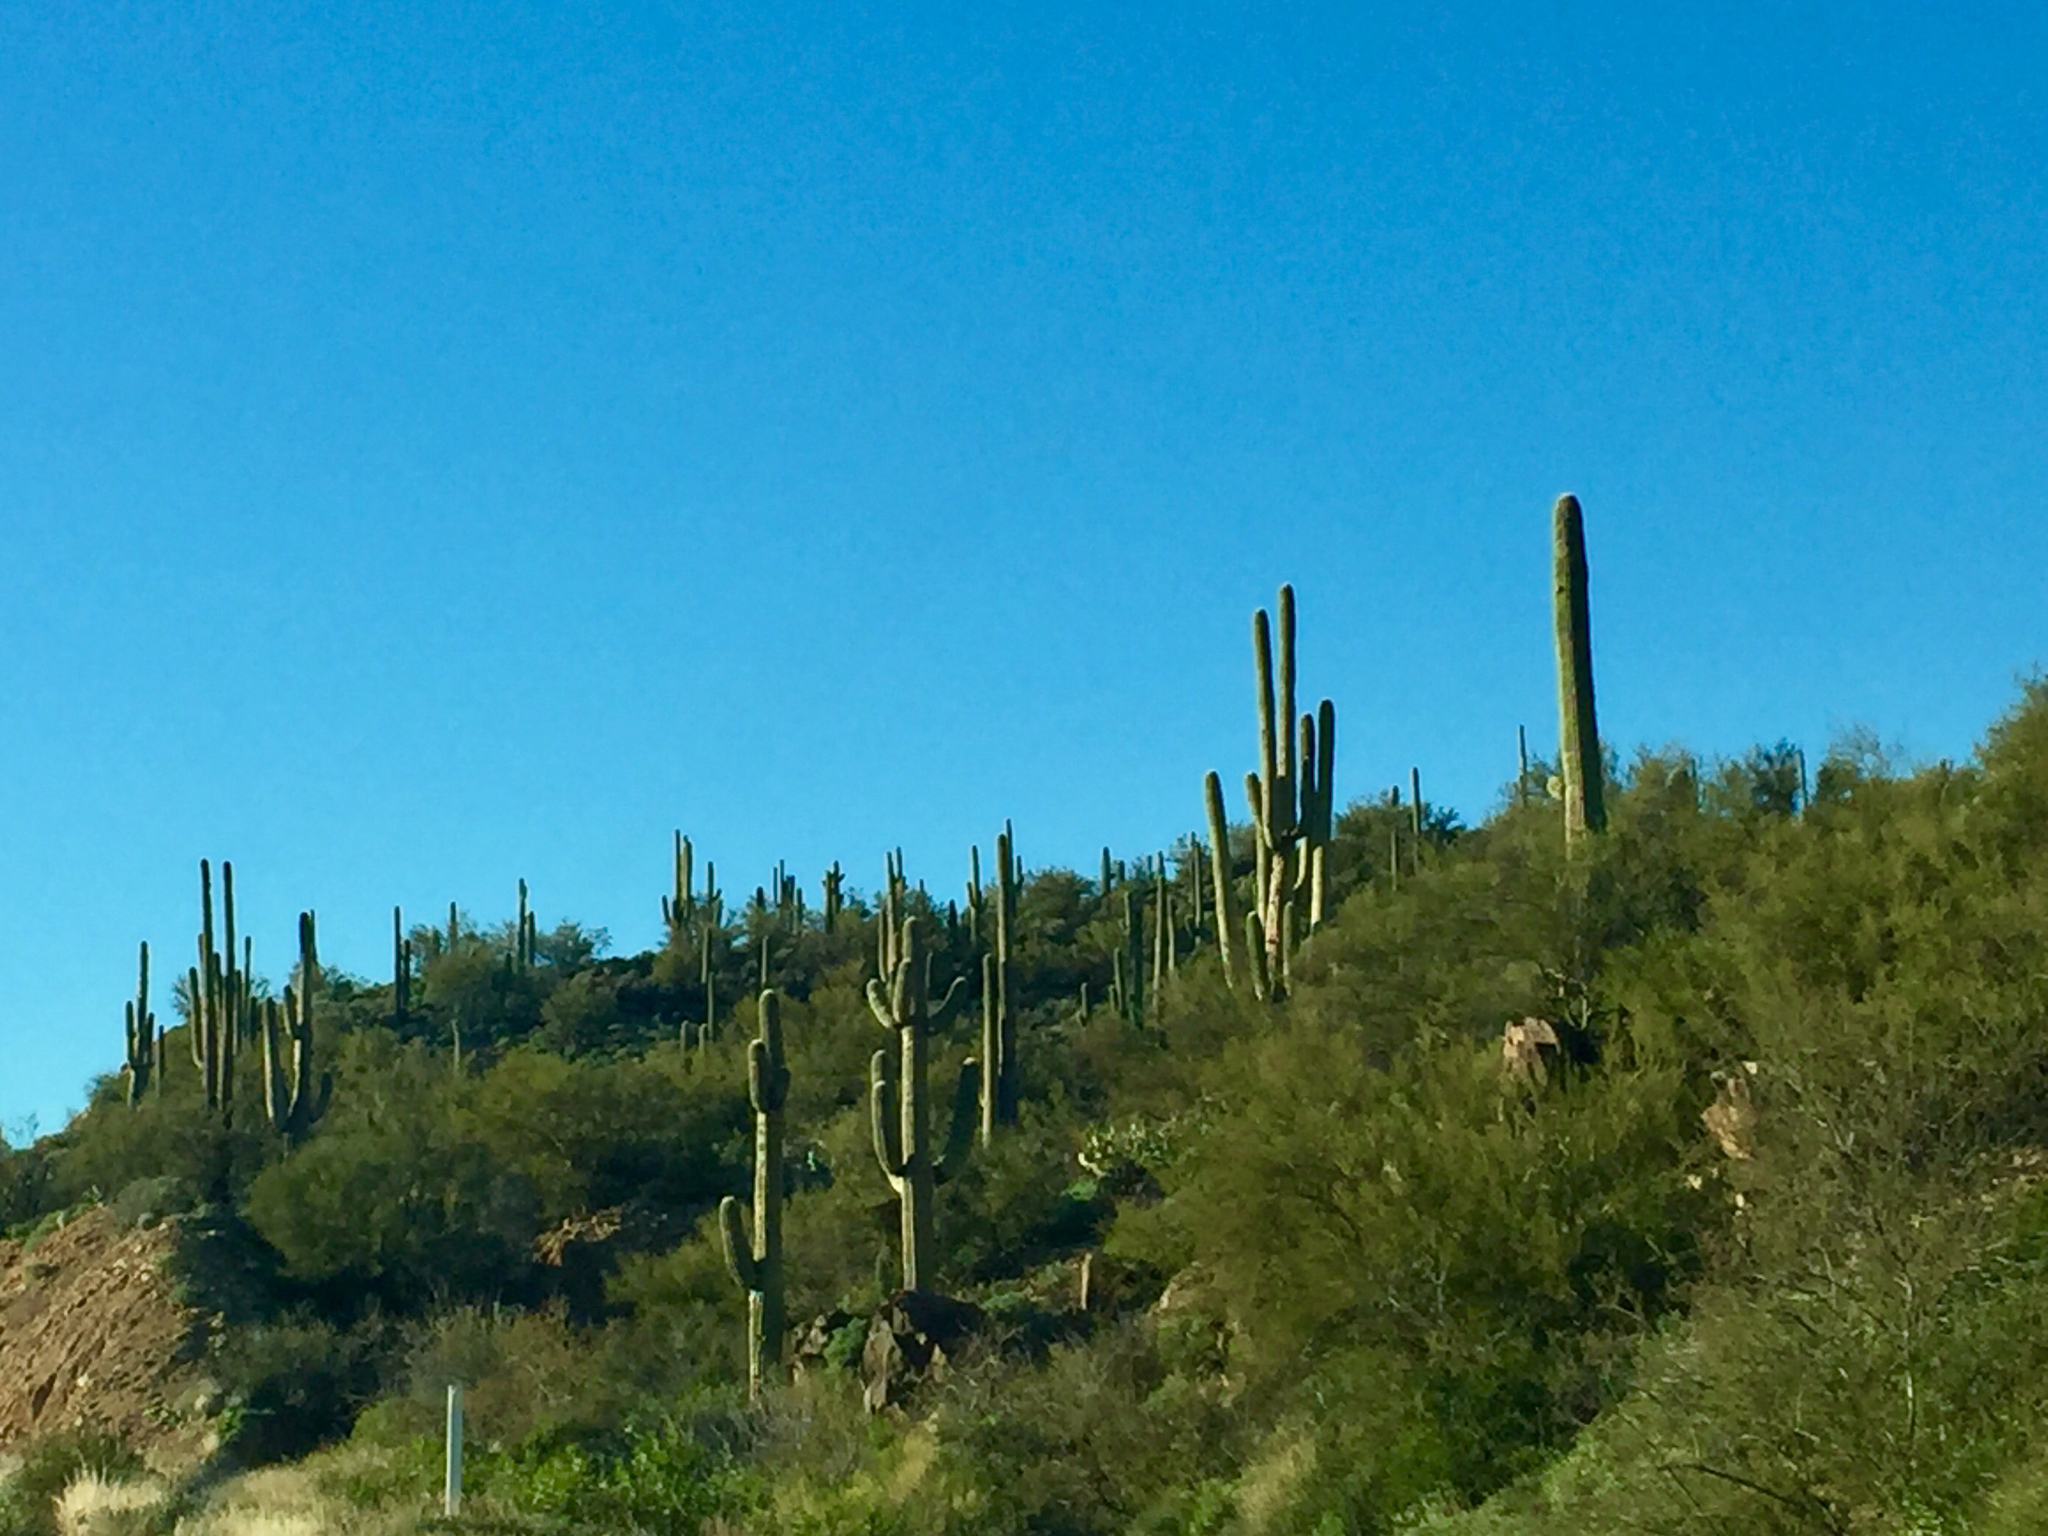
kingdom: Plantae
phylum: Tracheophyta
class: Magnoliopsida
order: Caryophyllales
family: Cactaceae
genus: Carnegiea
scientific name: Carnegiea gigantea
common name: Saguaro
